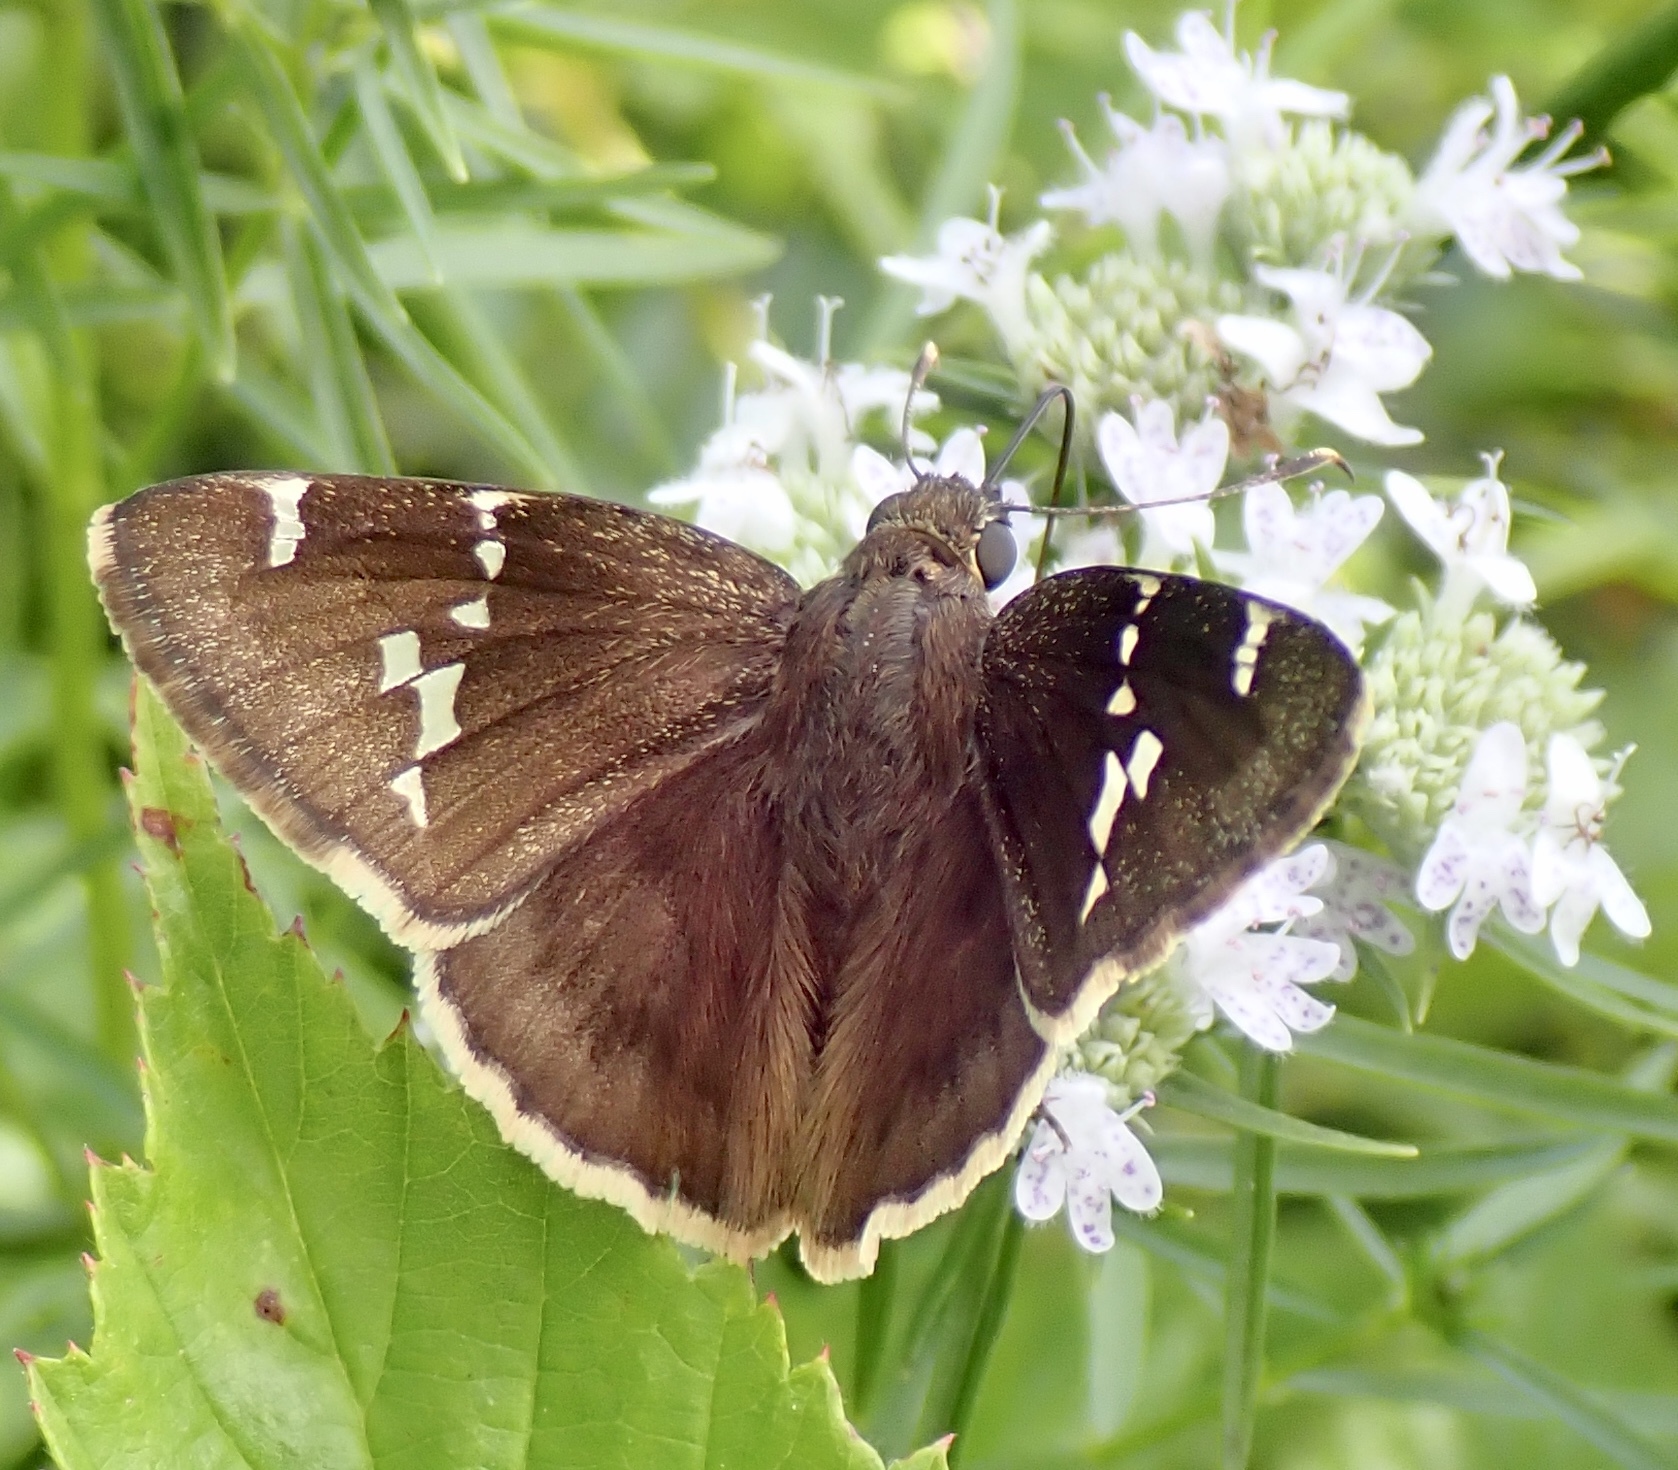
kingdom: Animalia
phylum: Arthropoda
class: Insecta
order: Lepidoptera
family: Hesperiidae
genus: Thorybes
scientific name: Thorybes daunus
